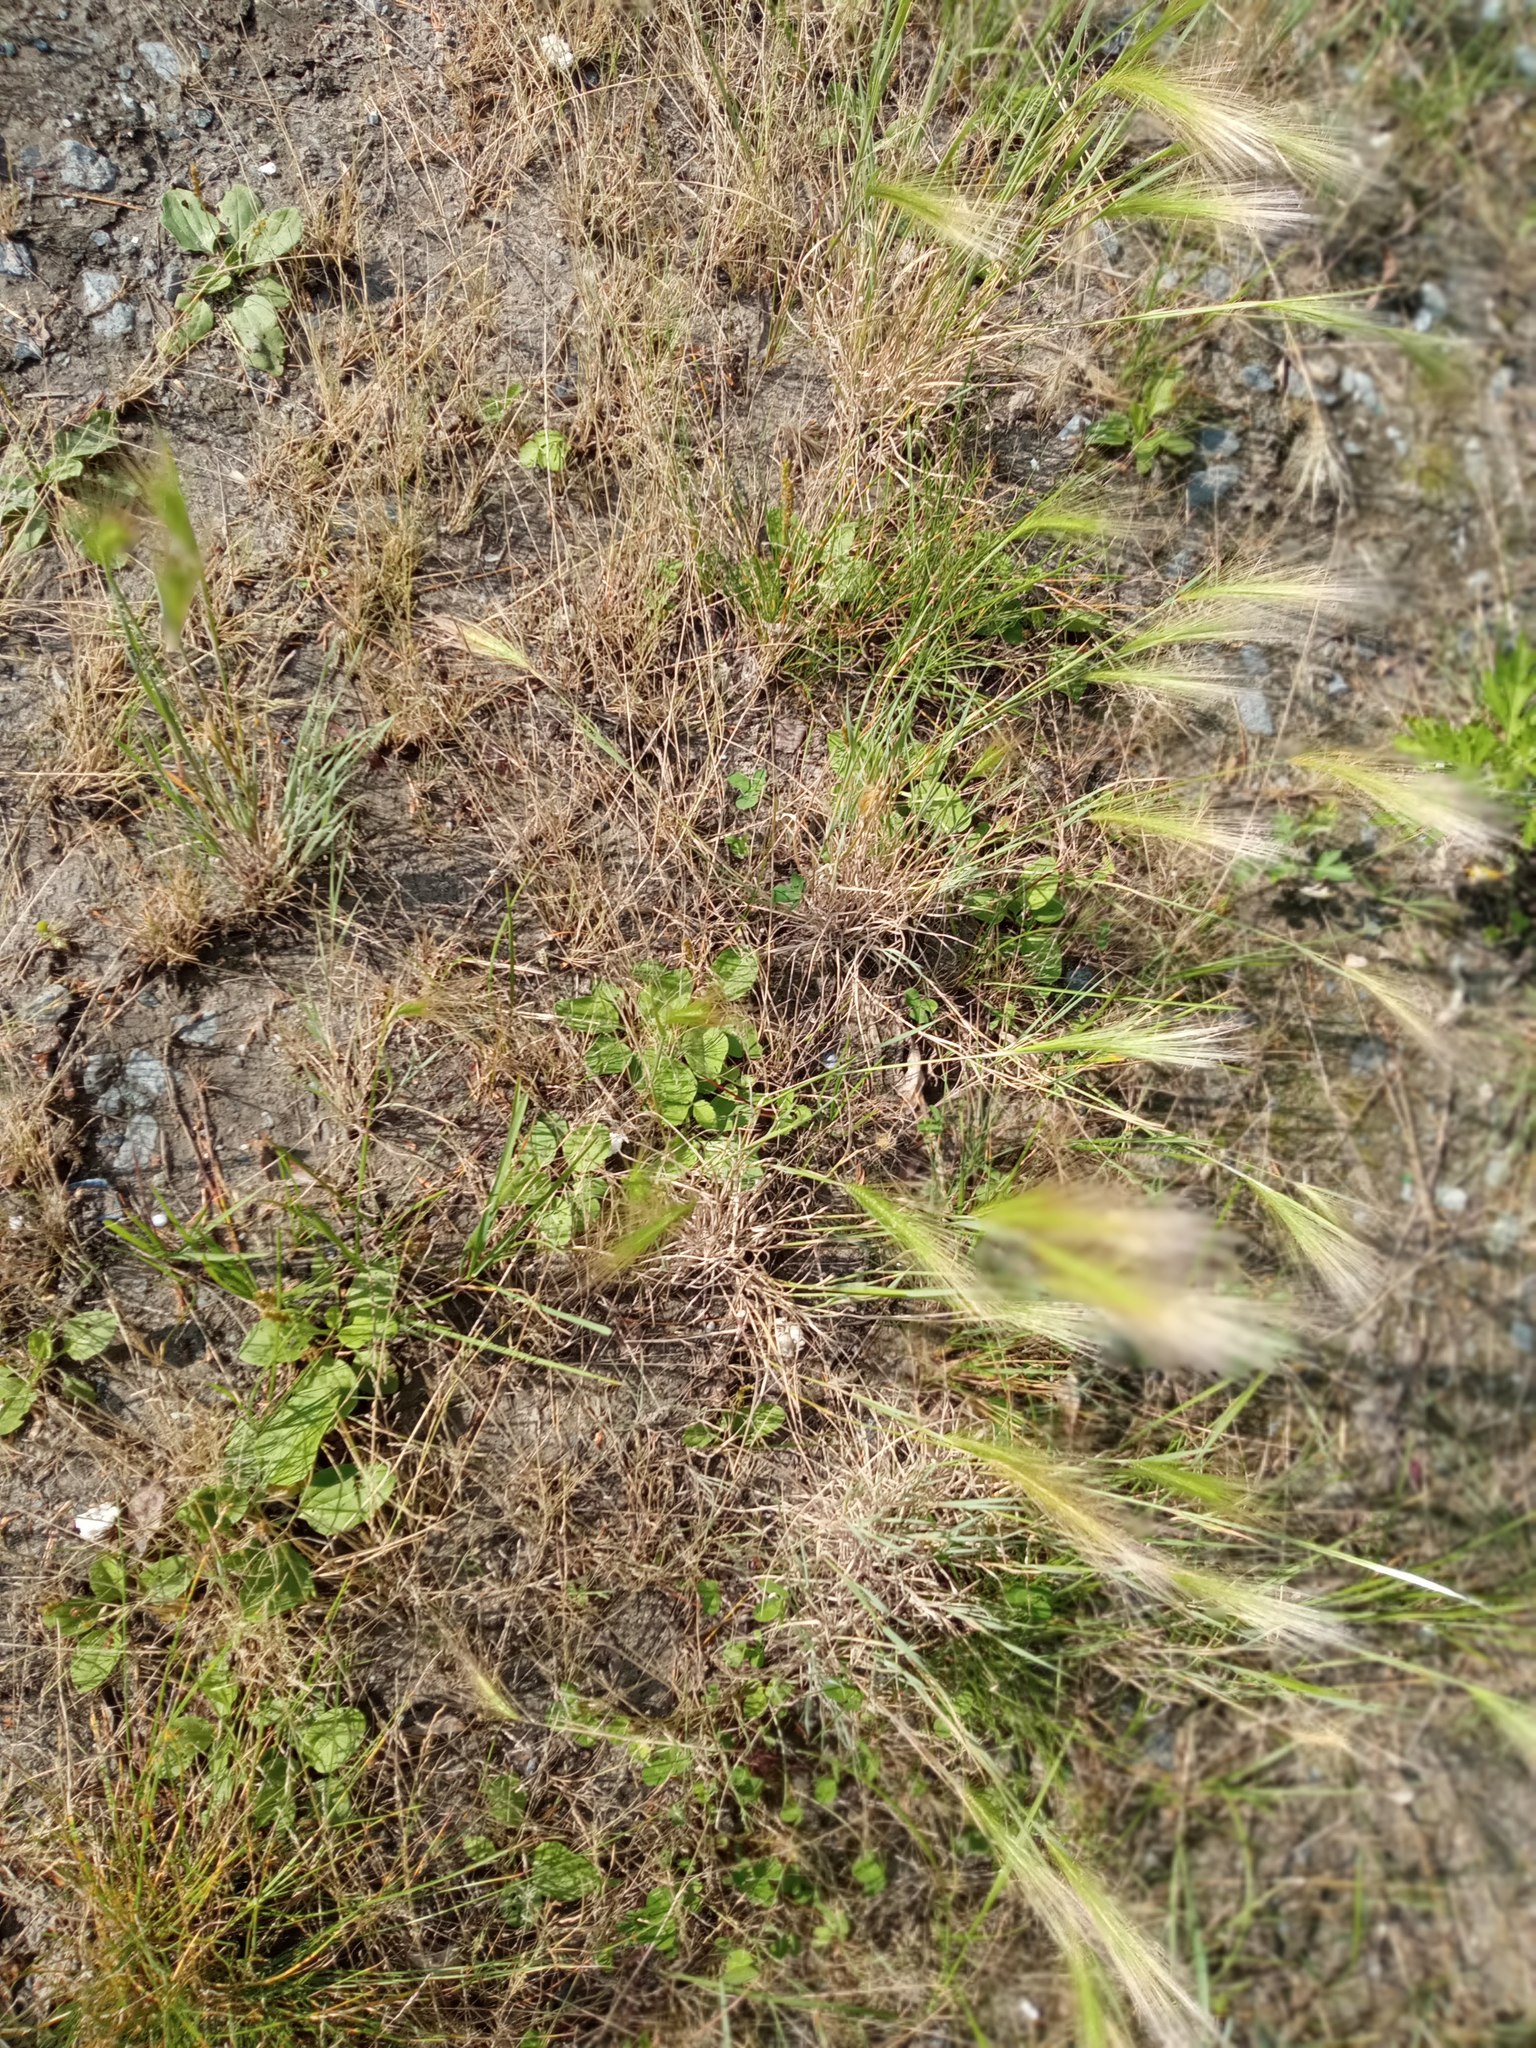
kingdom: Plantae
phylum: Tracheophyta
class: Liliopsida
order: Poales
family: Poaceae
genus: Hordeum
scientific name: Hordeum jubatum
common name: Foxtail barley
